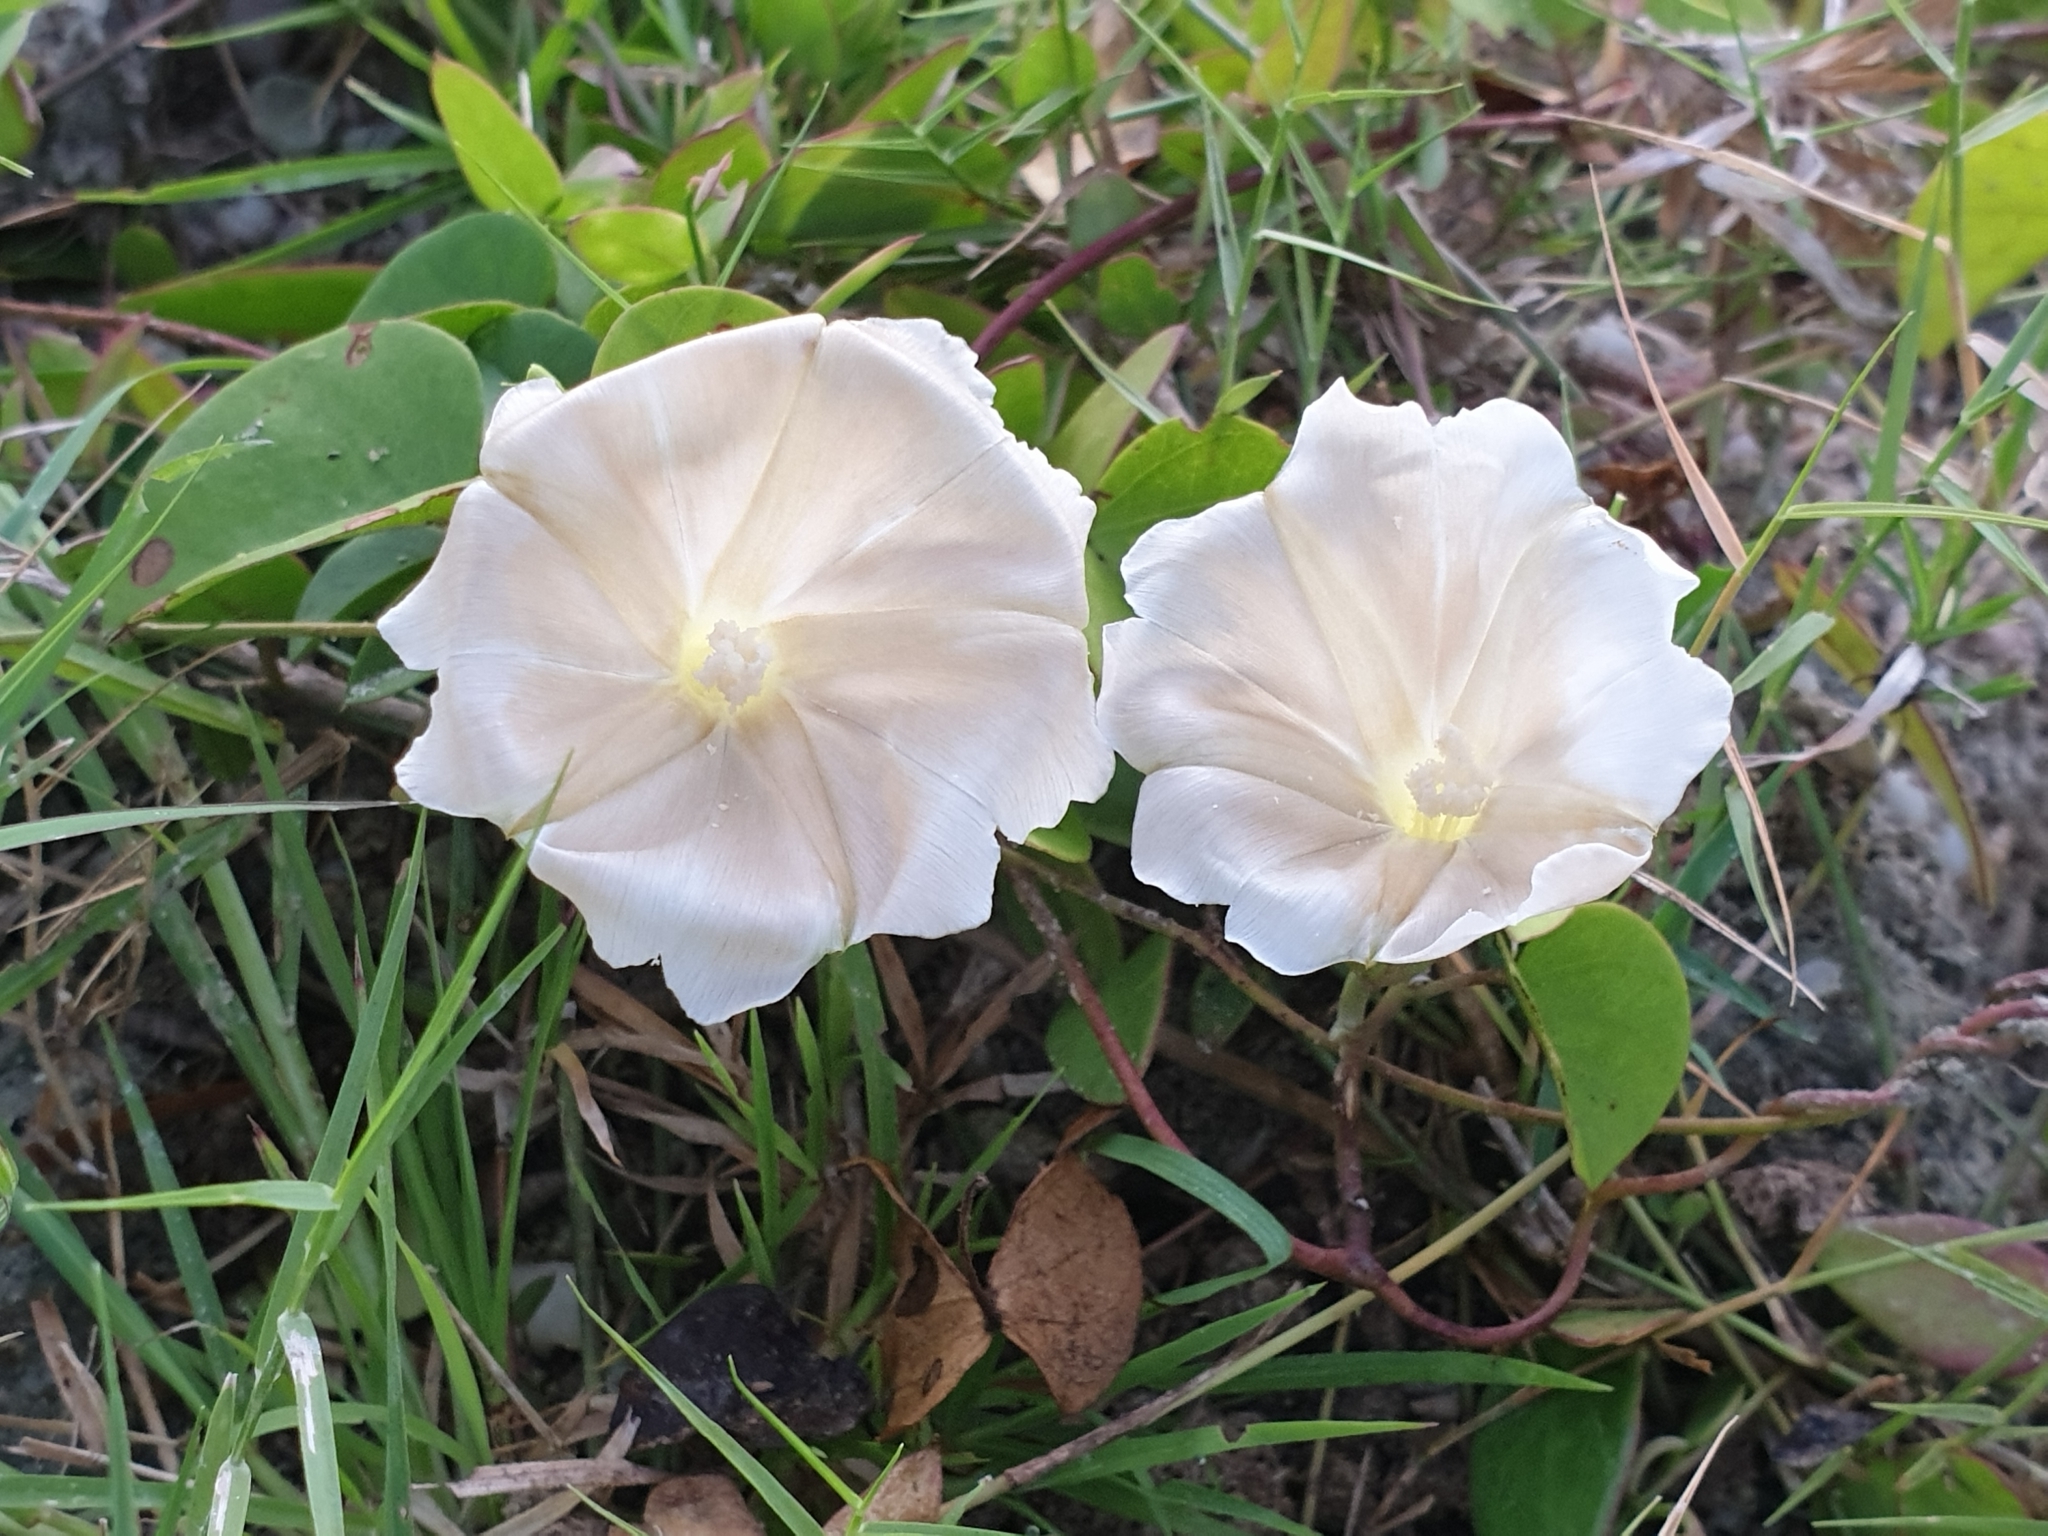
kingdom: Plantae
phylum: Tracheophyta
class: Magnoliopsida
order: Solanales
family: Convolvulaceae
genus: Rivea
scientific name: Rivea hypocrateriformis
